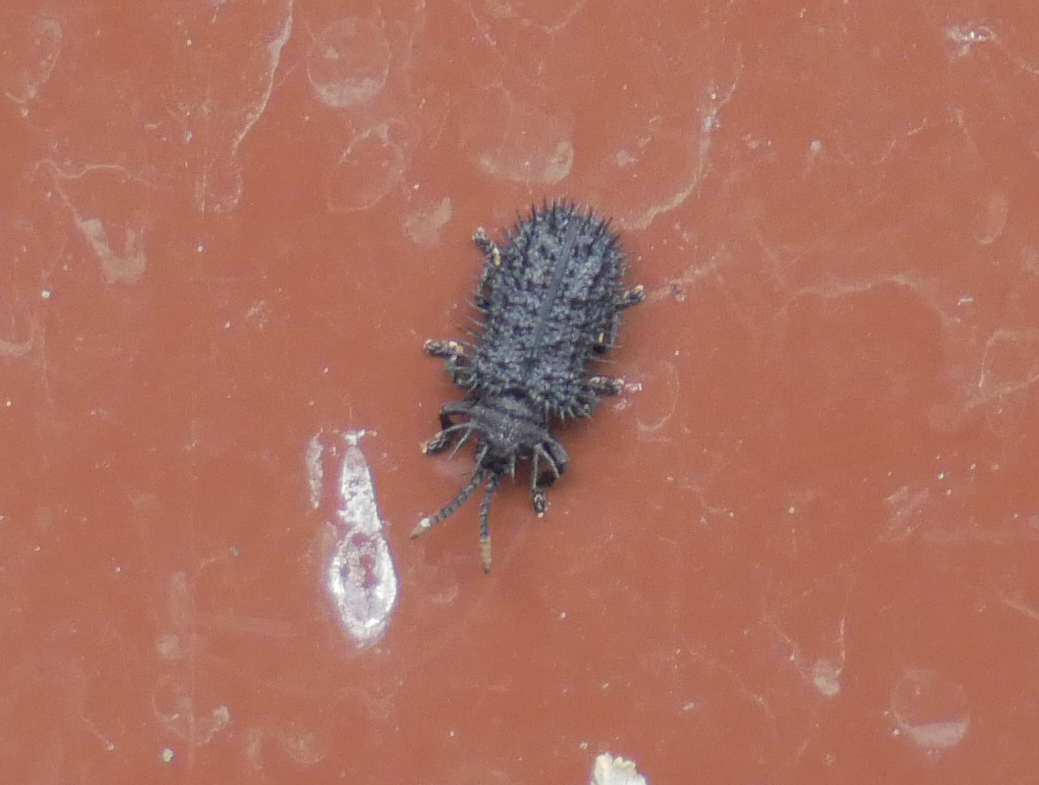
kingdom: Animalia
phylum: Arthropoda
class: Insecta
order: Coleoptera
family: Chrysomelidae
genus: Hispa
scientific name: Hispa atra
